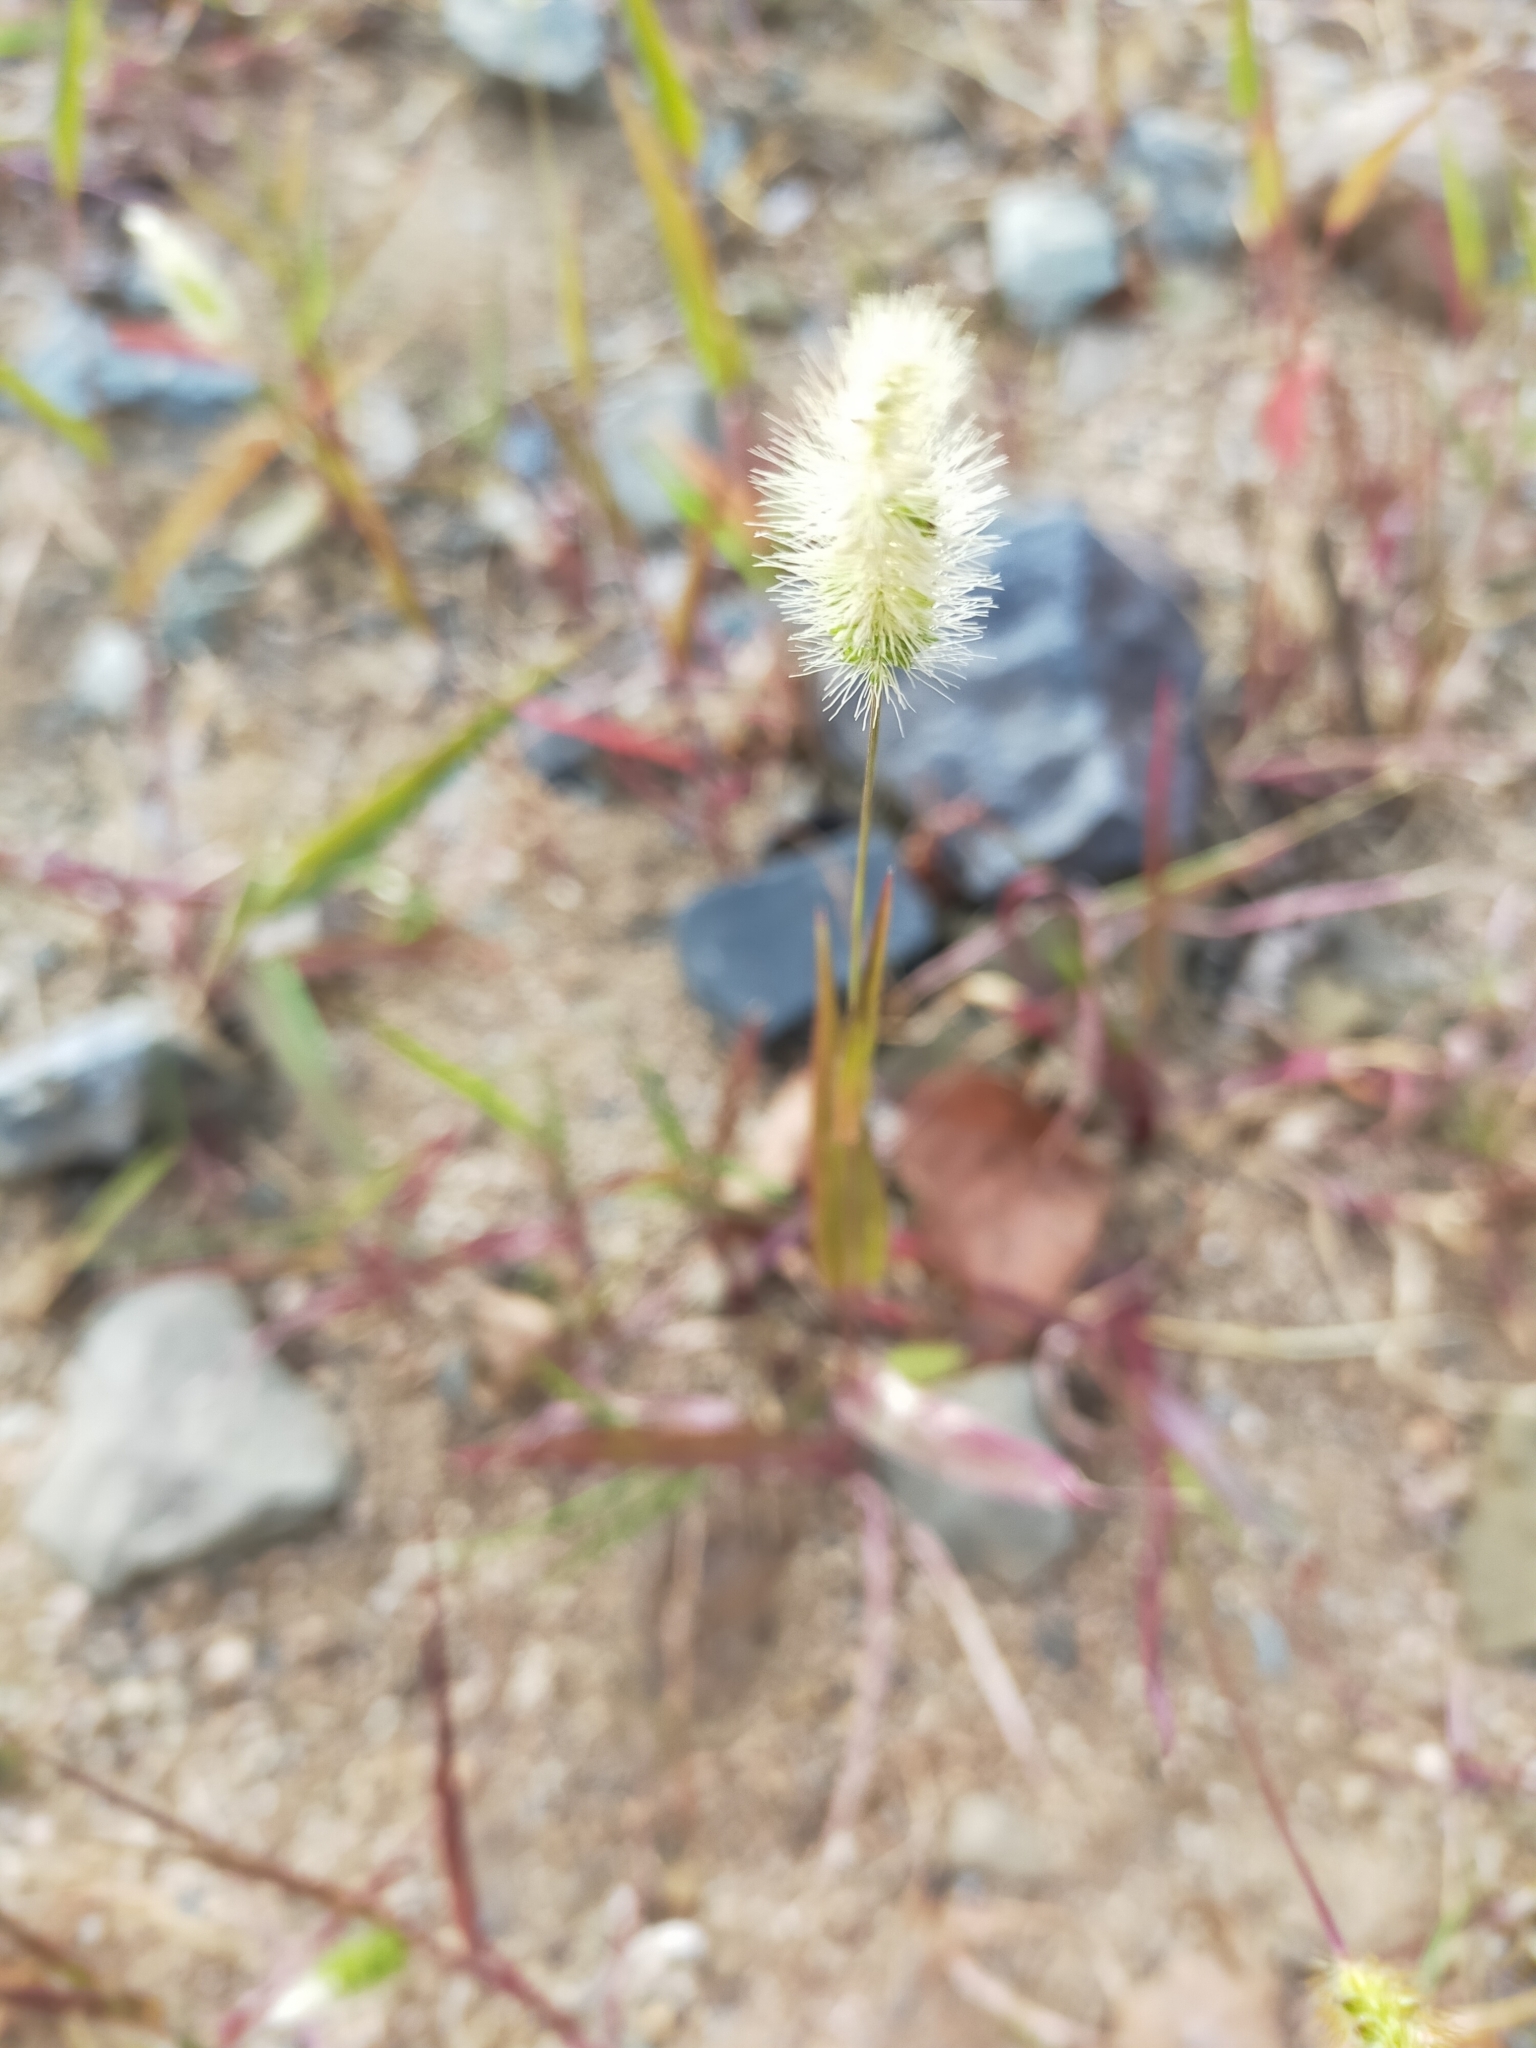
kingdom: Plantae
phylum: Tracheophyta
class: Liliopsida
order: Poales
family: Poaceae
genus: Setaria
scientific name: Setaria viridis
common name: Green bristlegrass
